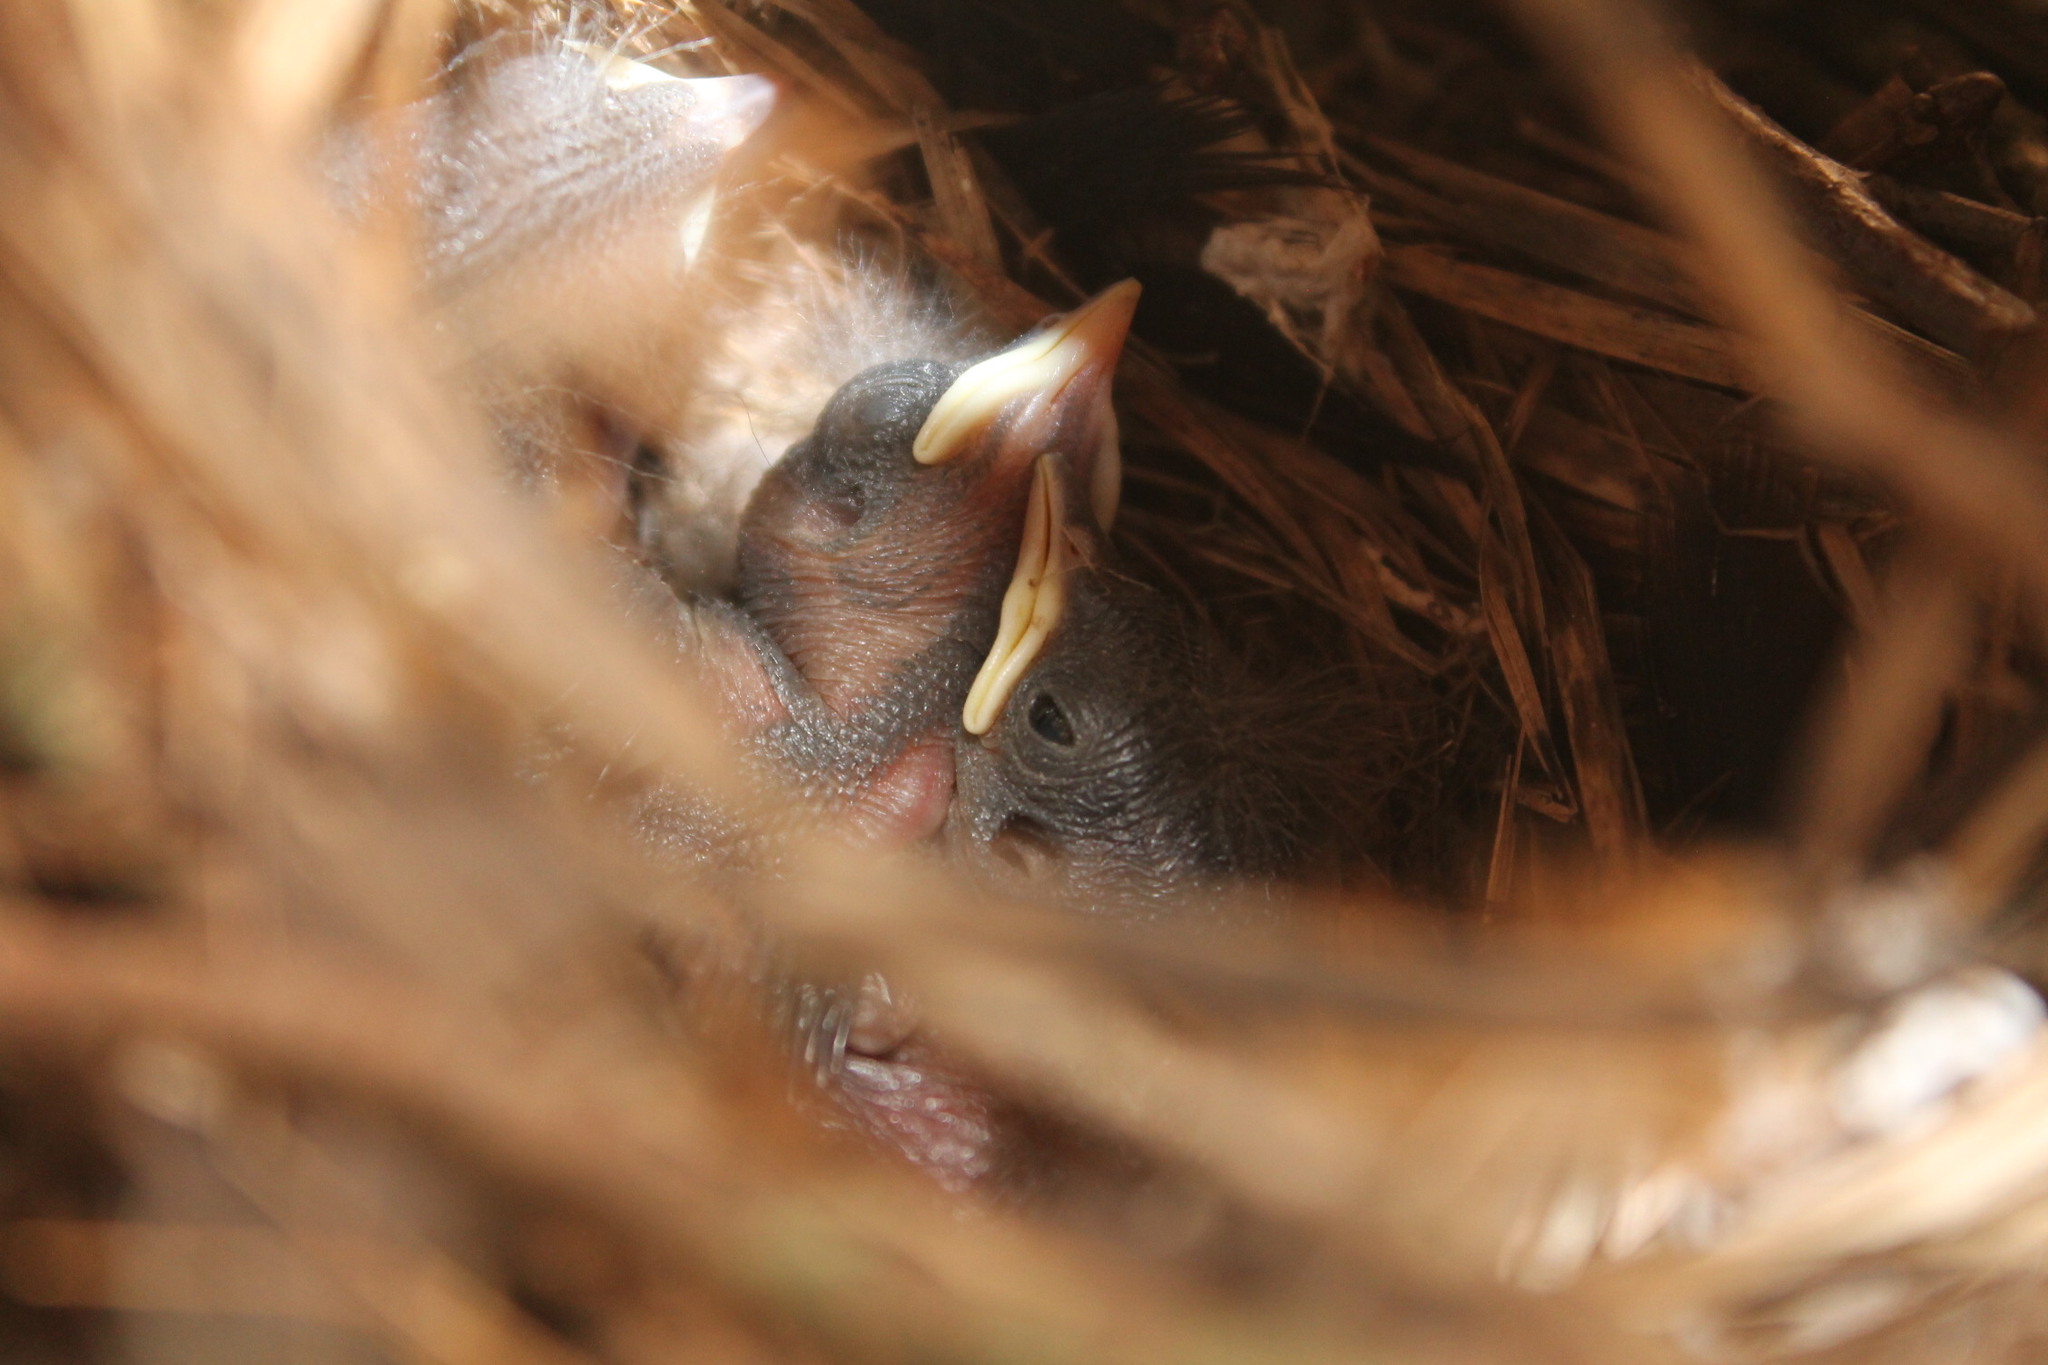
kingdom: Animalia
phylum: Chordata
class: Aves
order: Passeriformes
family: Troglodytidae
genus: Troglodytes
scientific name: Troglodytes aedon
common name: House wren
